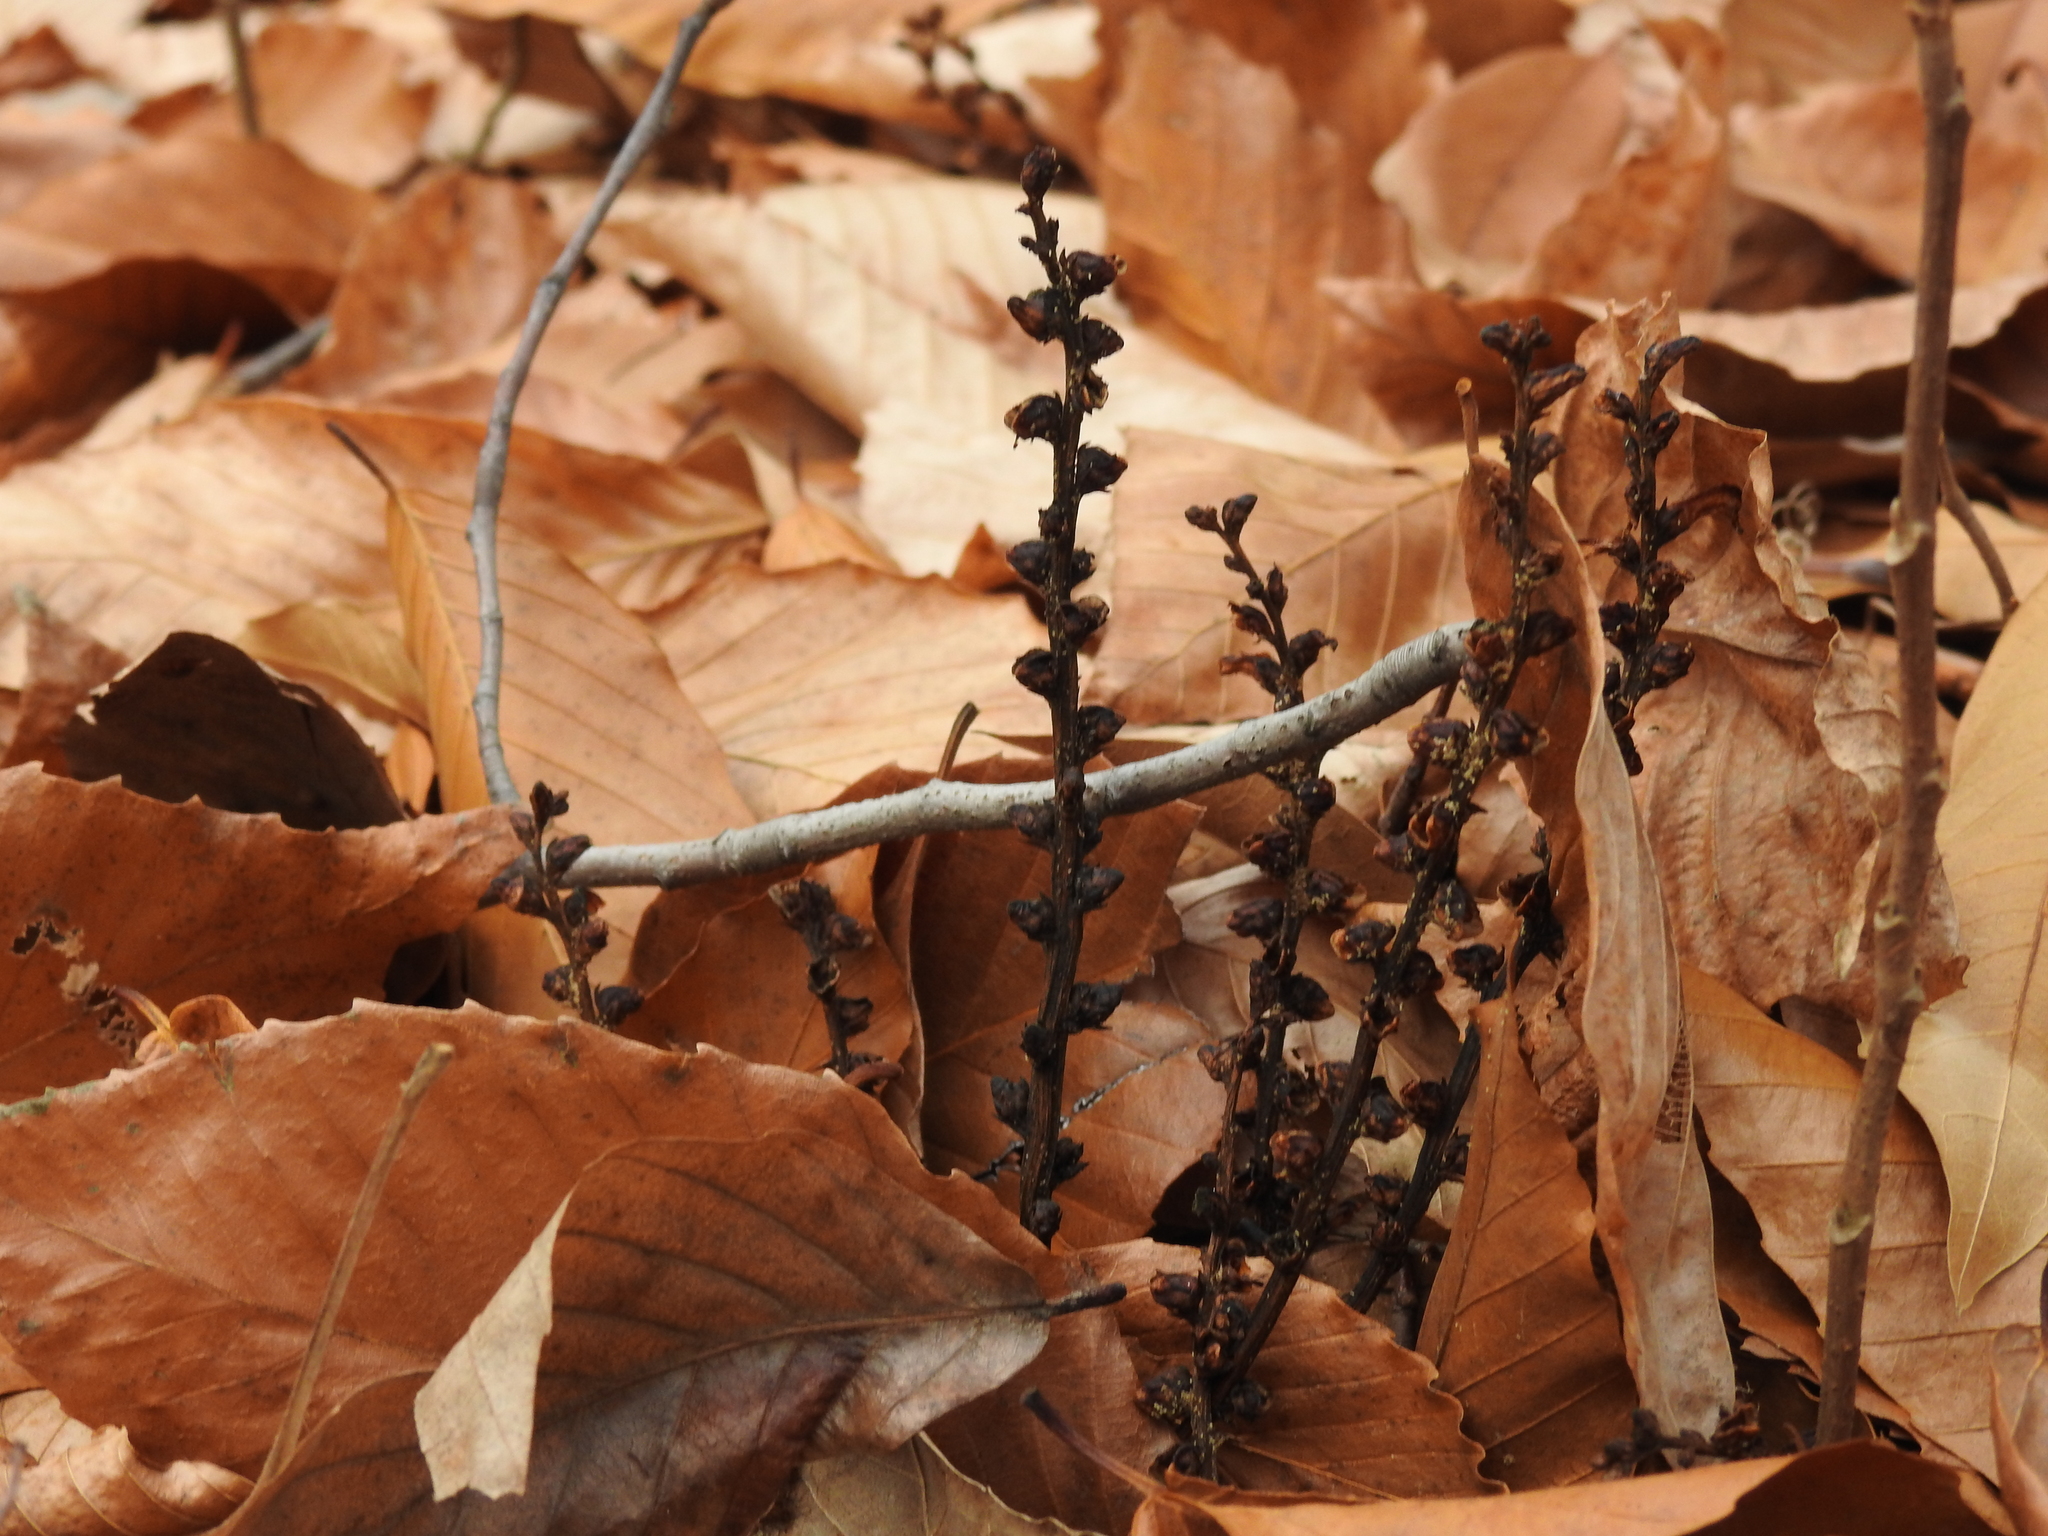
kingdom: Plantae
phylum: Tracheophyta
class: Magnoliopsida
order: Lamiales
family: Orobanchaceae
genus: Epifagus
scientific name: Epifagus virginiana
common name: Beechdrops
